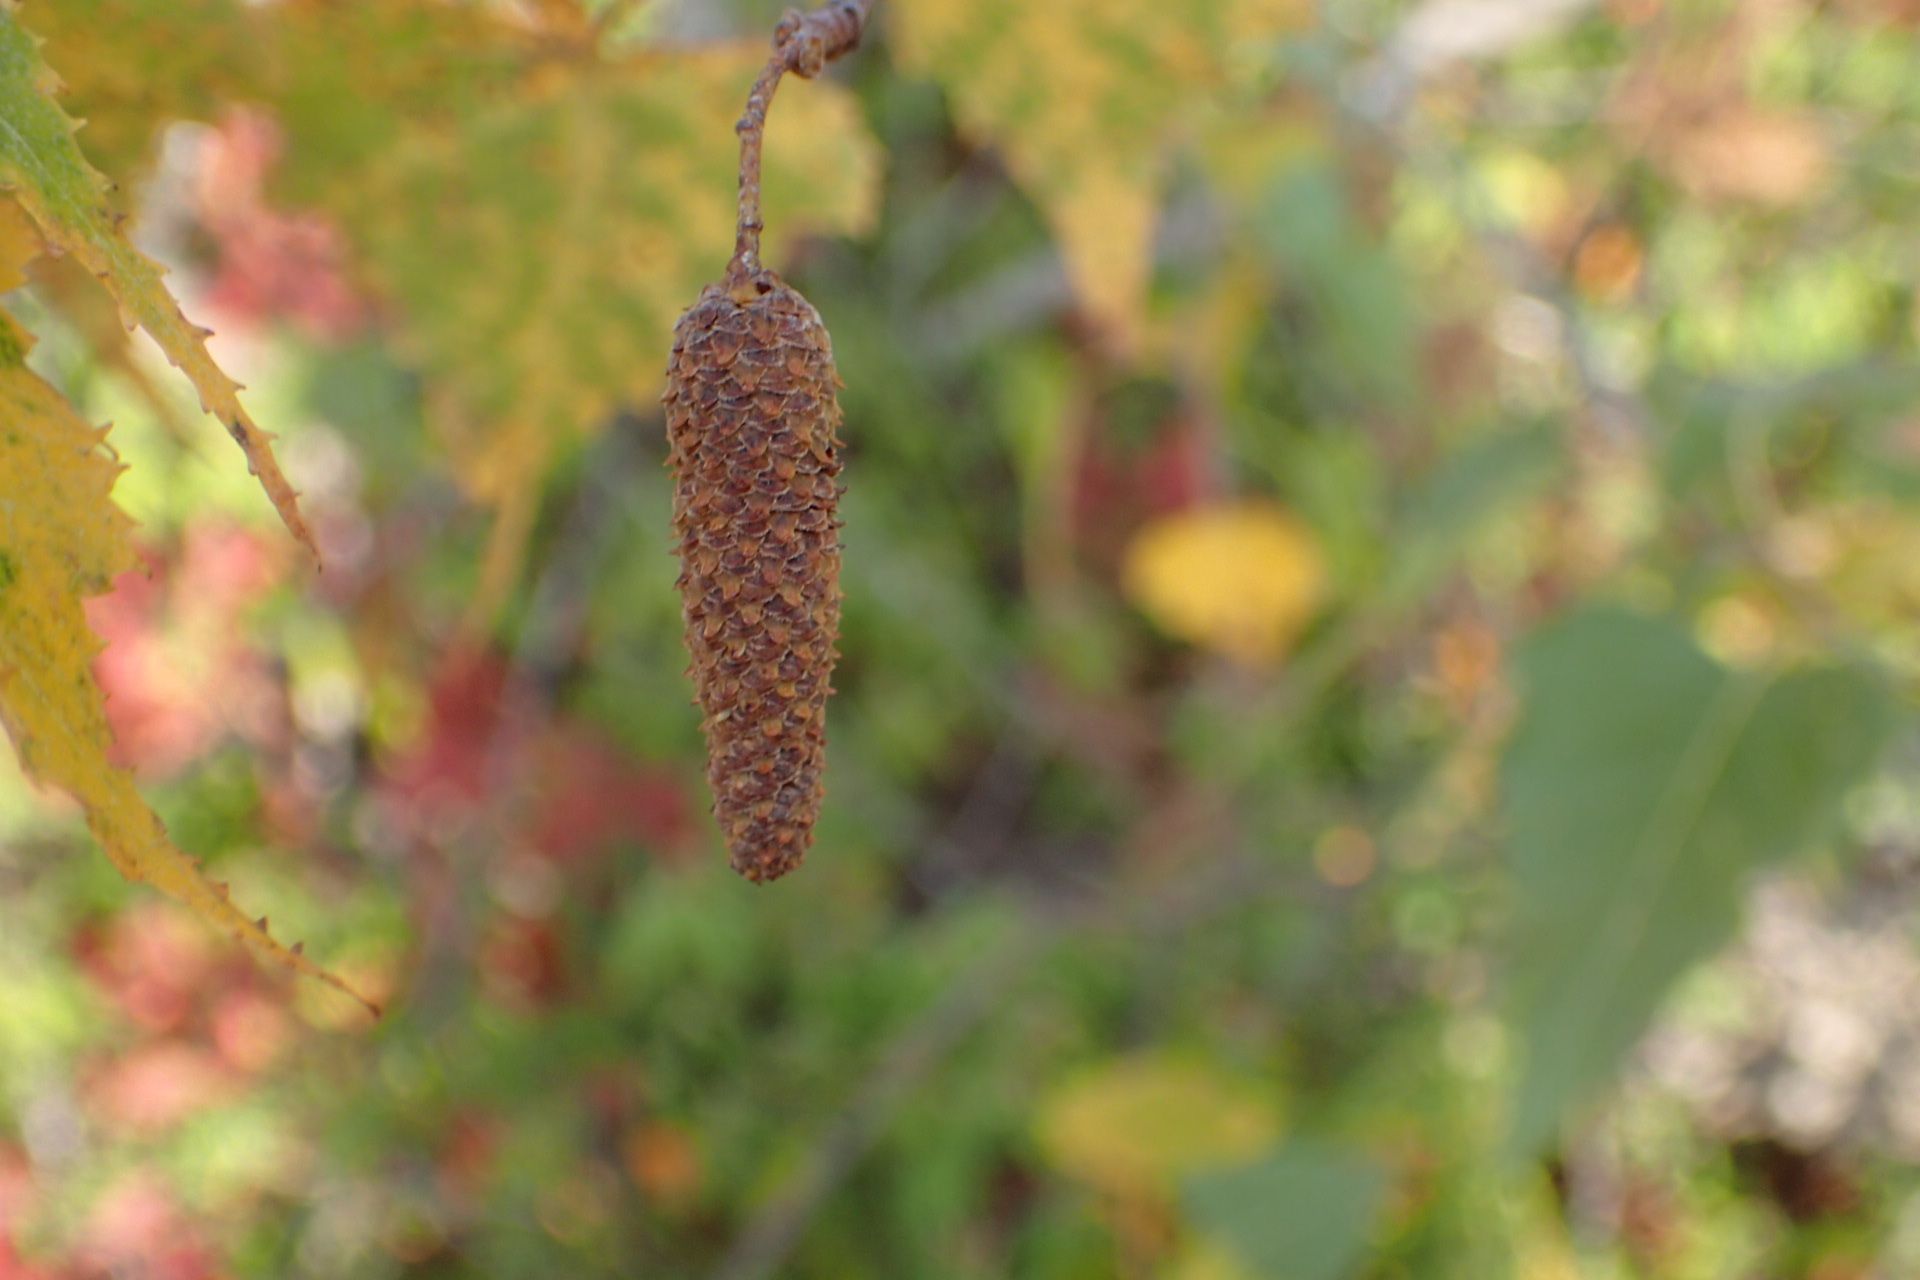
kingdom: Plantae
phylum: Tracheophyta
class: Magnoliopsida
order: Fagales
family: Betulaceae
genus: Betula
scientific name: Betula populifolia
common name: Fire birch
